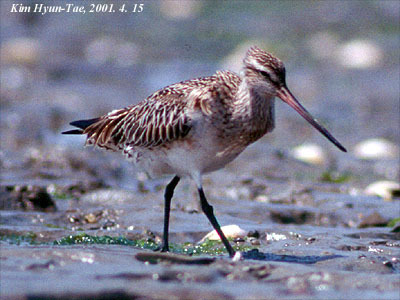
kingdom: Animalia
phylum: Chordata
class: Aves
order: Charadriiformes
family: Scolopacidae
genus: Limosa
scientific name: Limosa lapponica
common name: Bar-tailed godwit
